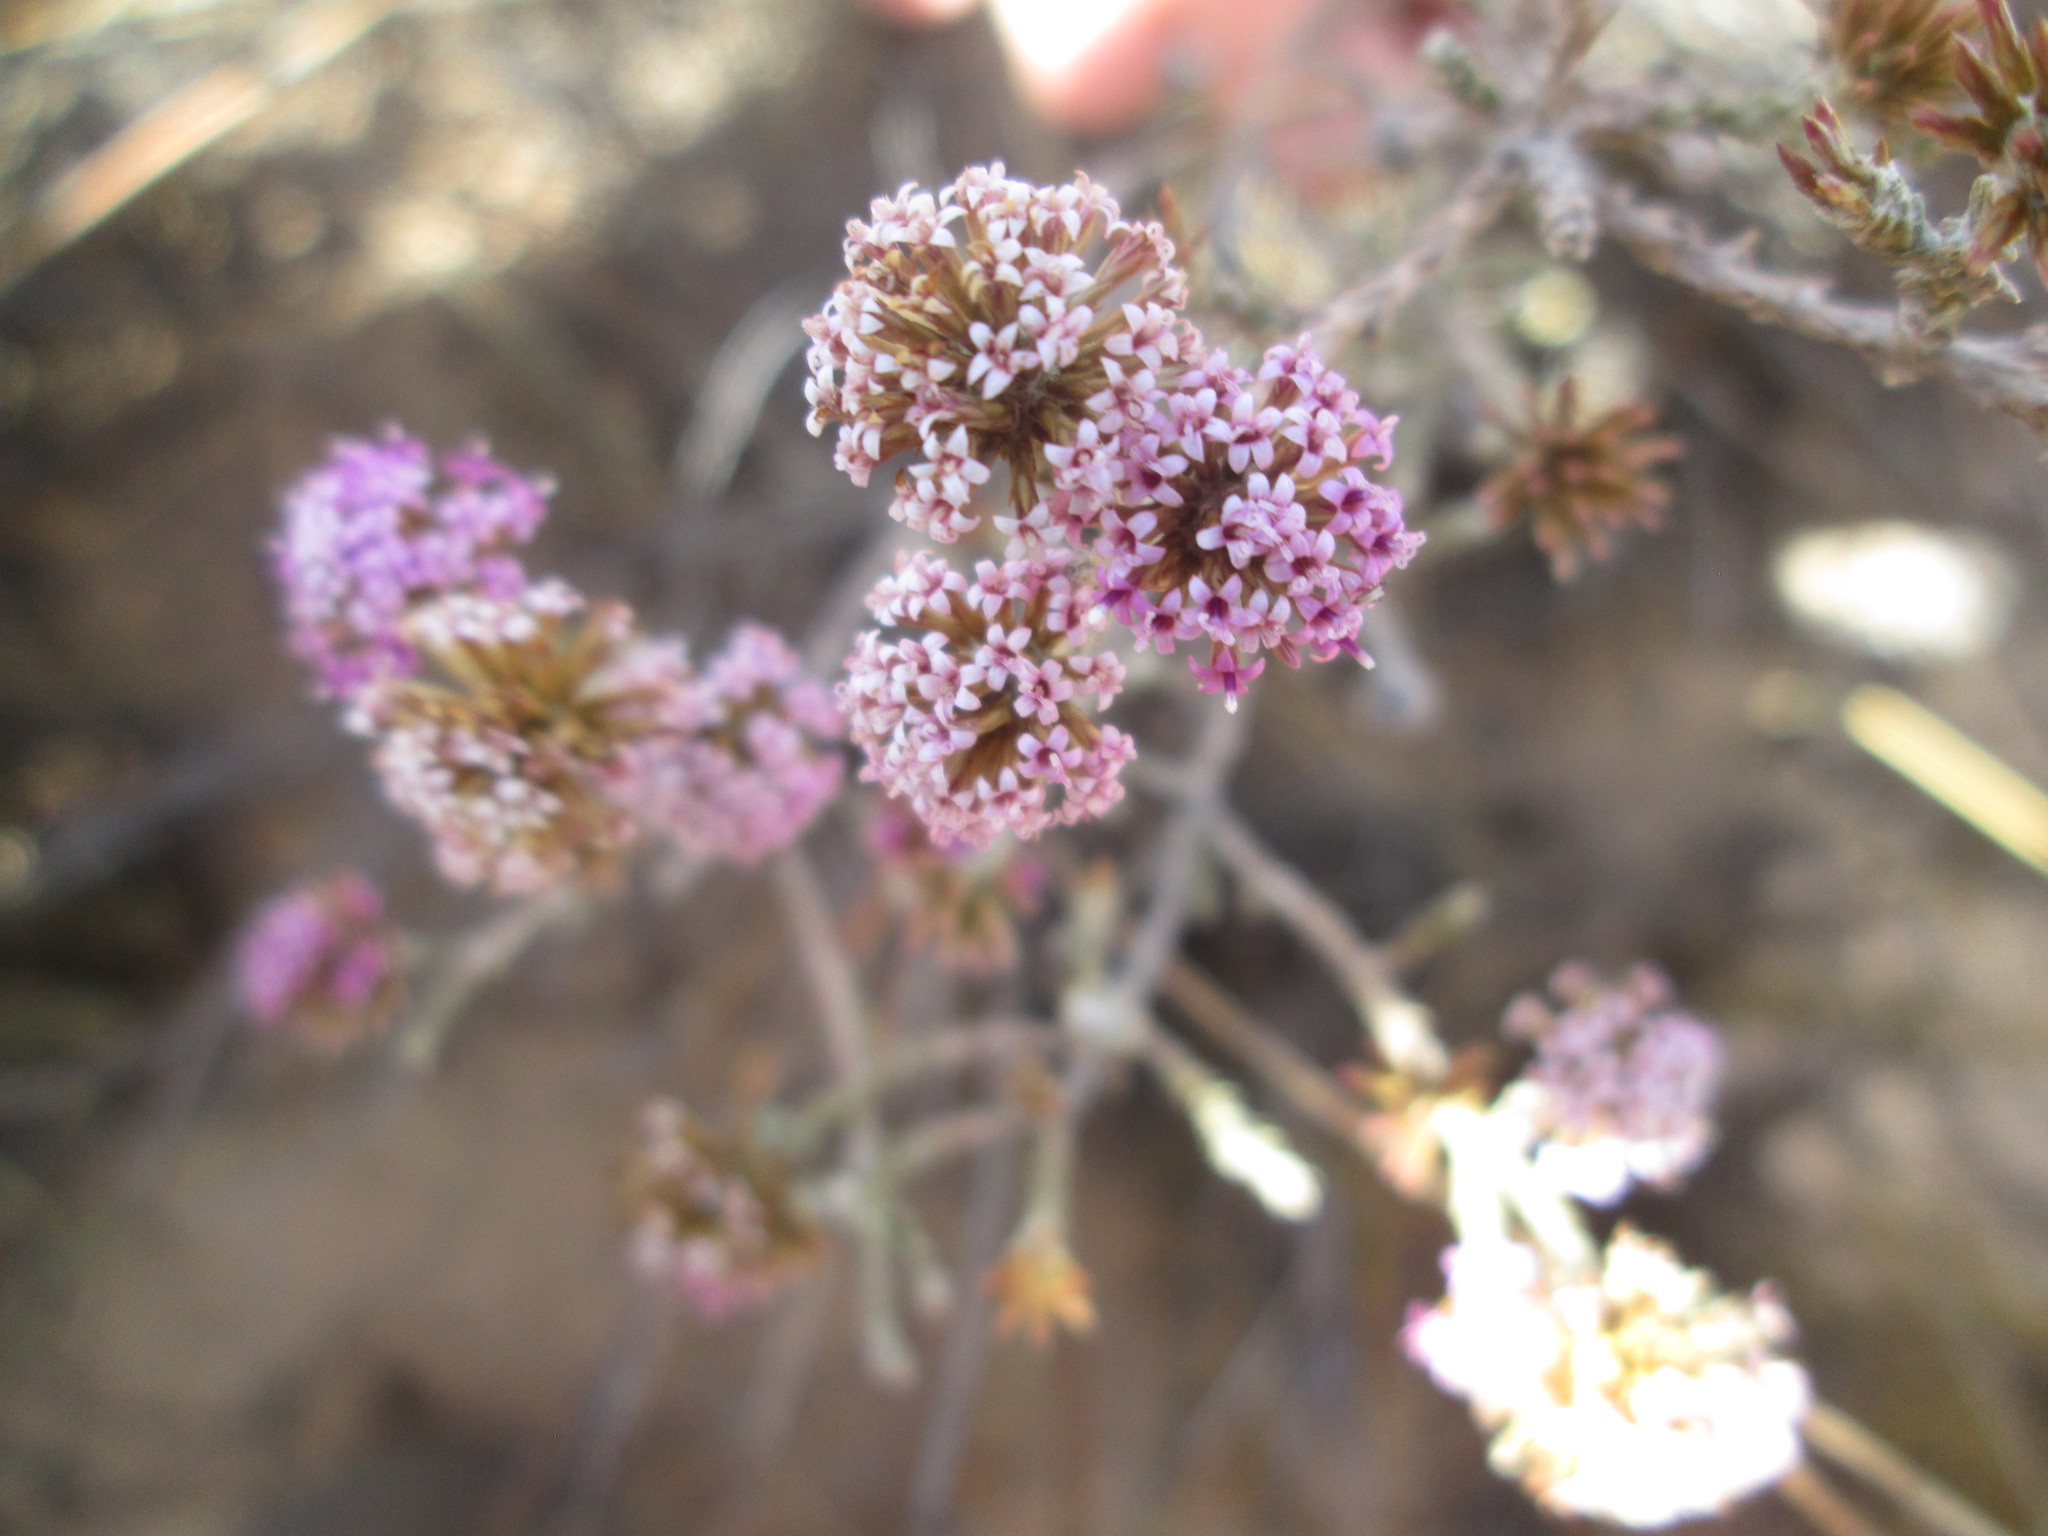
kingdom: Plantae
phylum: Tracheophyta
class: Magnoliopsida
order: Asterales
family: Asteraceae
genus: Stoebe
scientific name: Stoebe fusca
